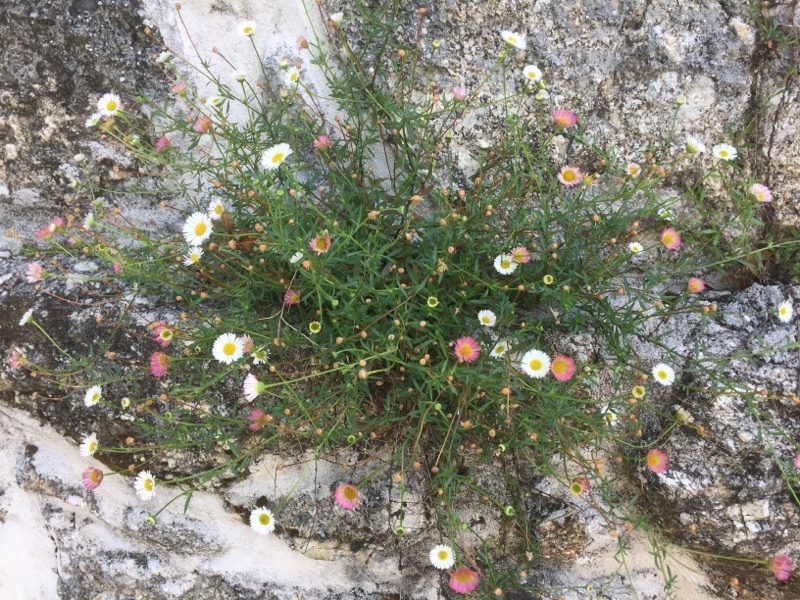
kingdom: Plantae
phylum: Tracheophyta
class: Magnoliopsida
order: Asterales
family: Asteraceae
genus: Erigeron
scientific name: Erigeron karvinskianus
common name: Mexican fleabane
